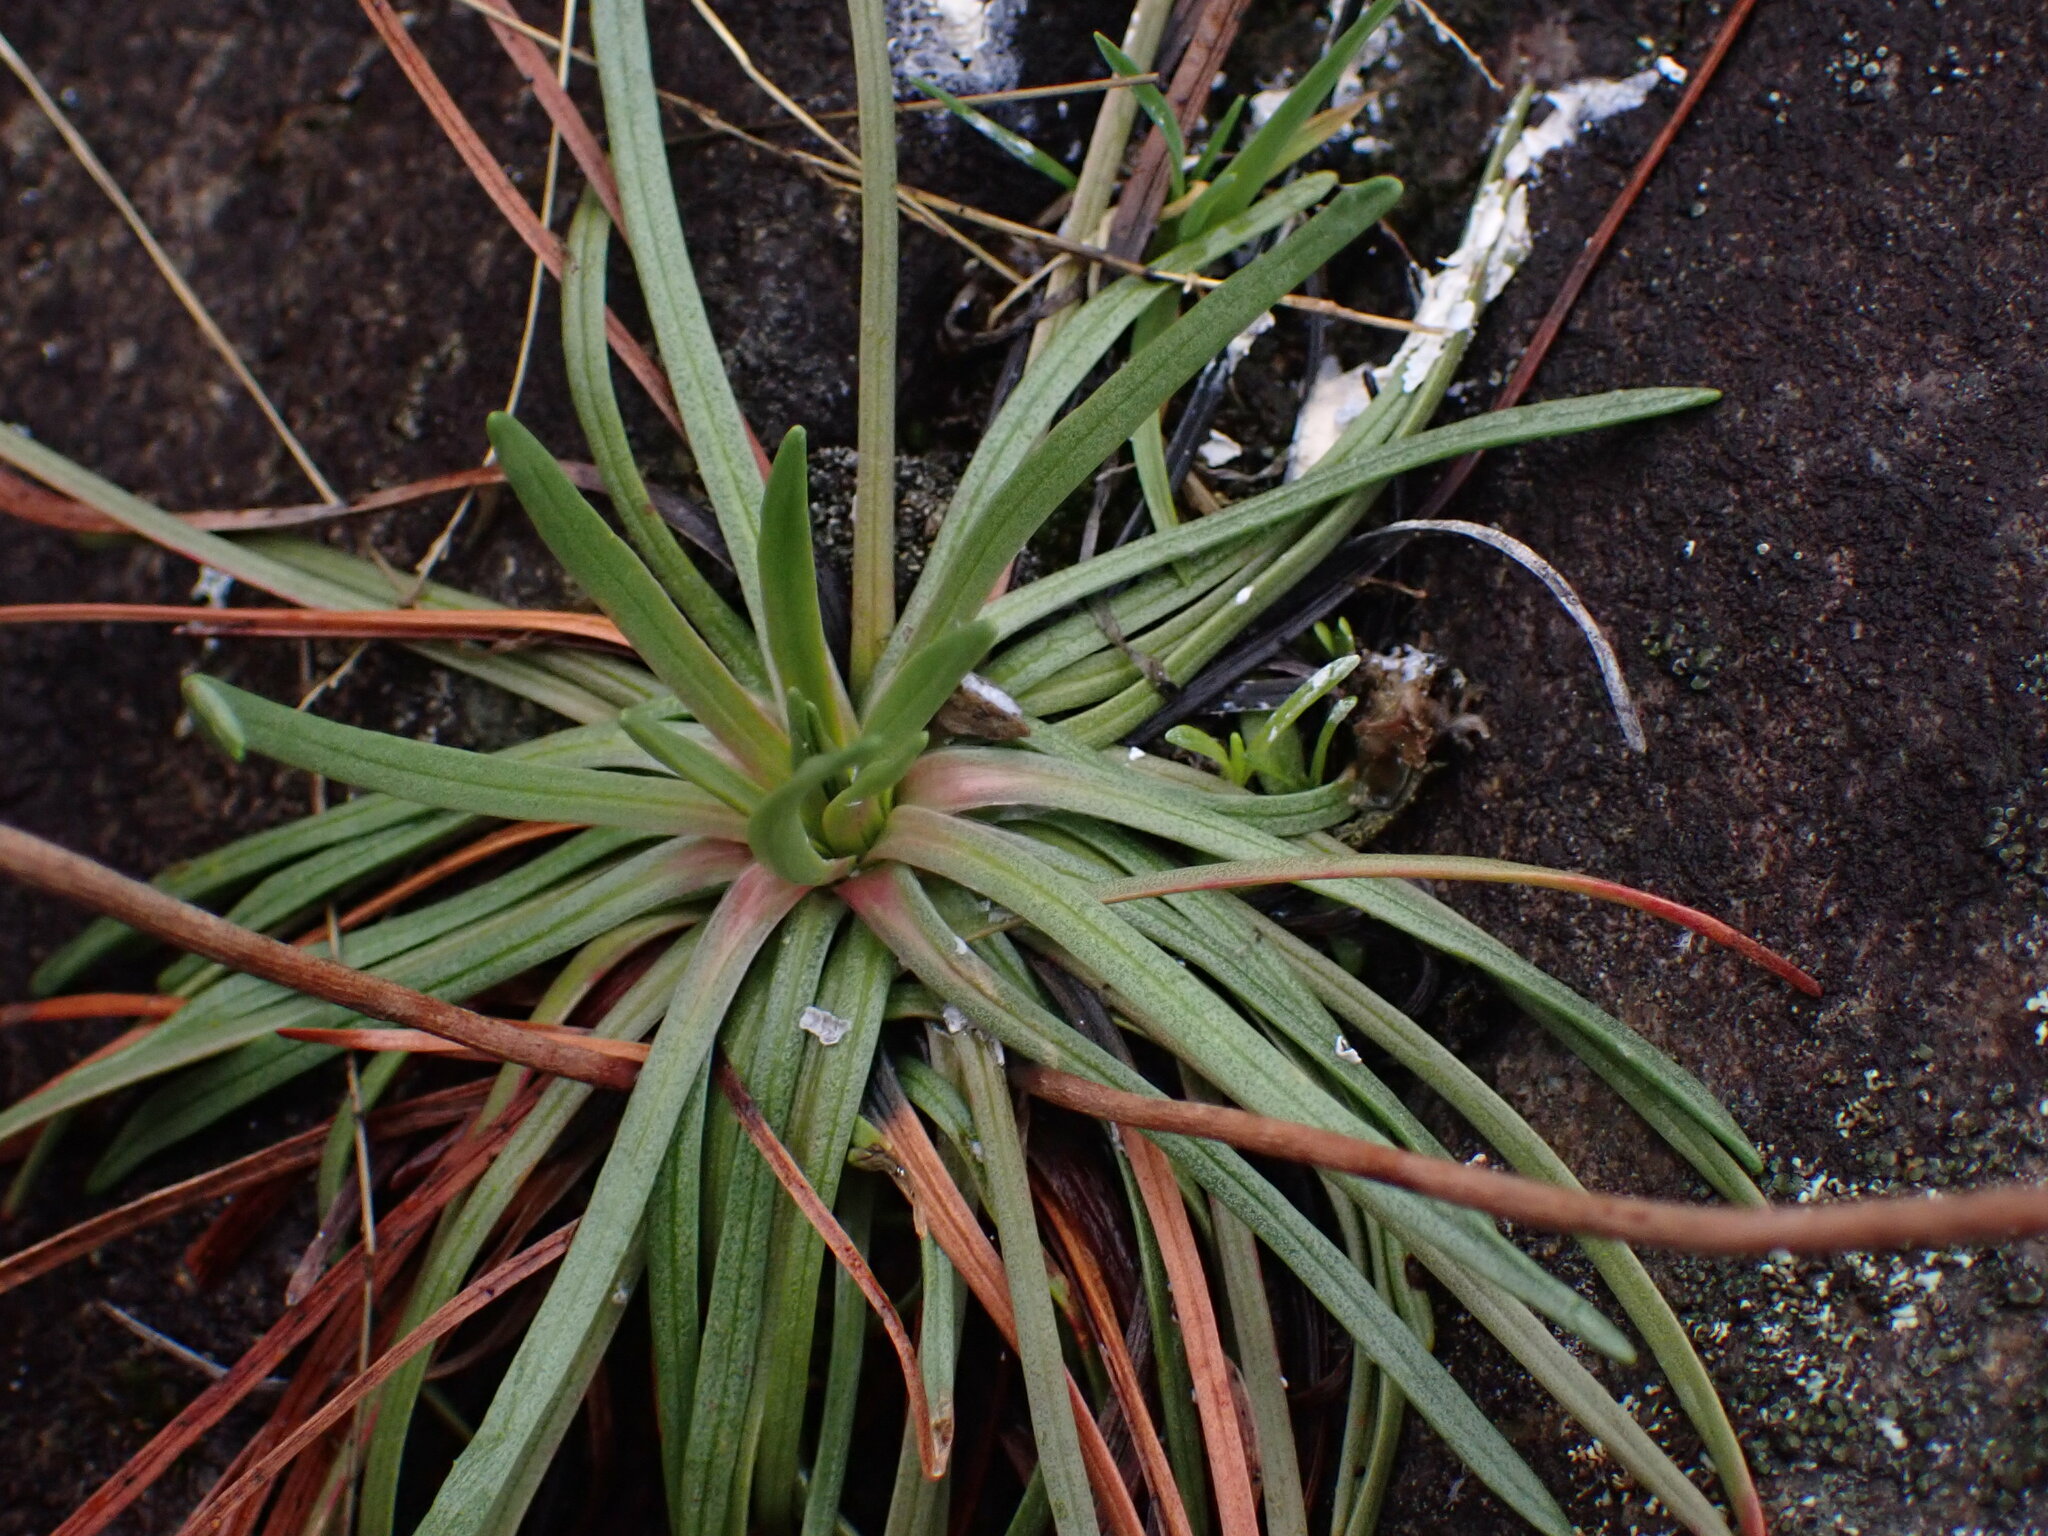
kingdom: Plantae
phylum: Tracheophyta
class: Magnoliopsida
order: Caryophyllales
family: Plumbaginaceae
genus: Armeria
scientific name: Armeria maritima
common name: Thrift
